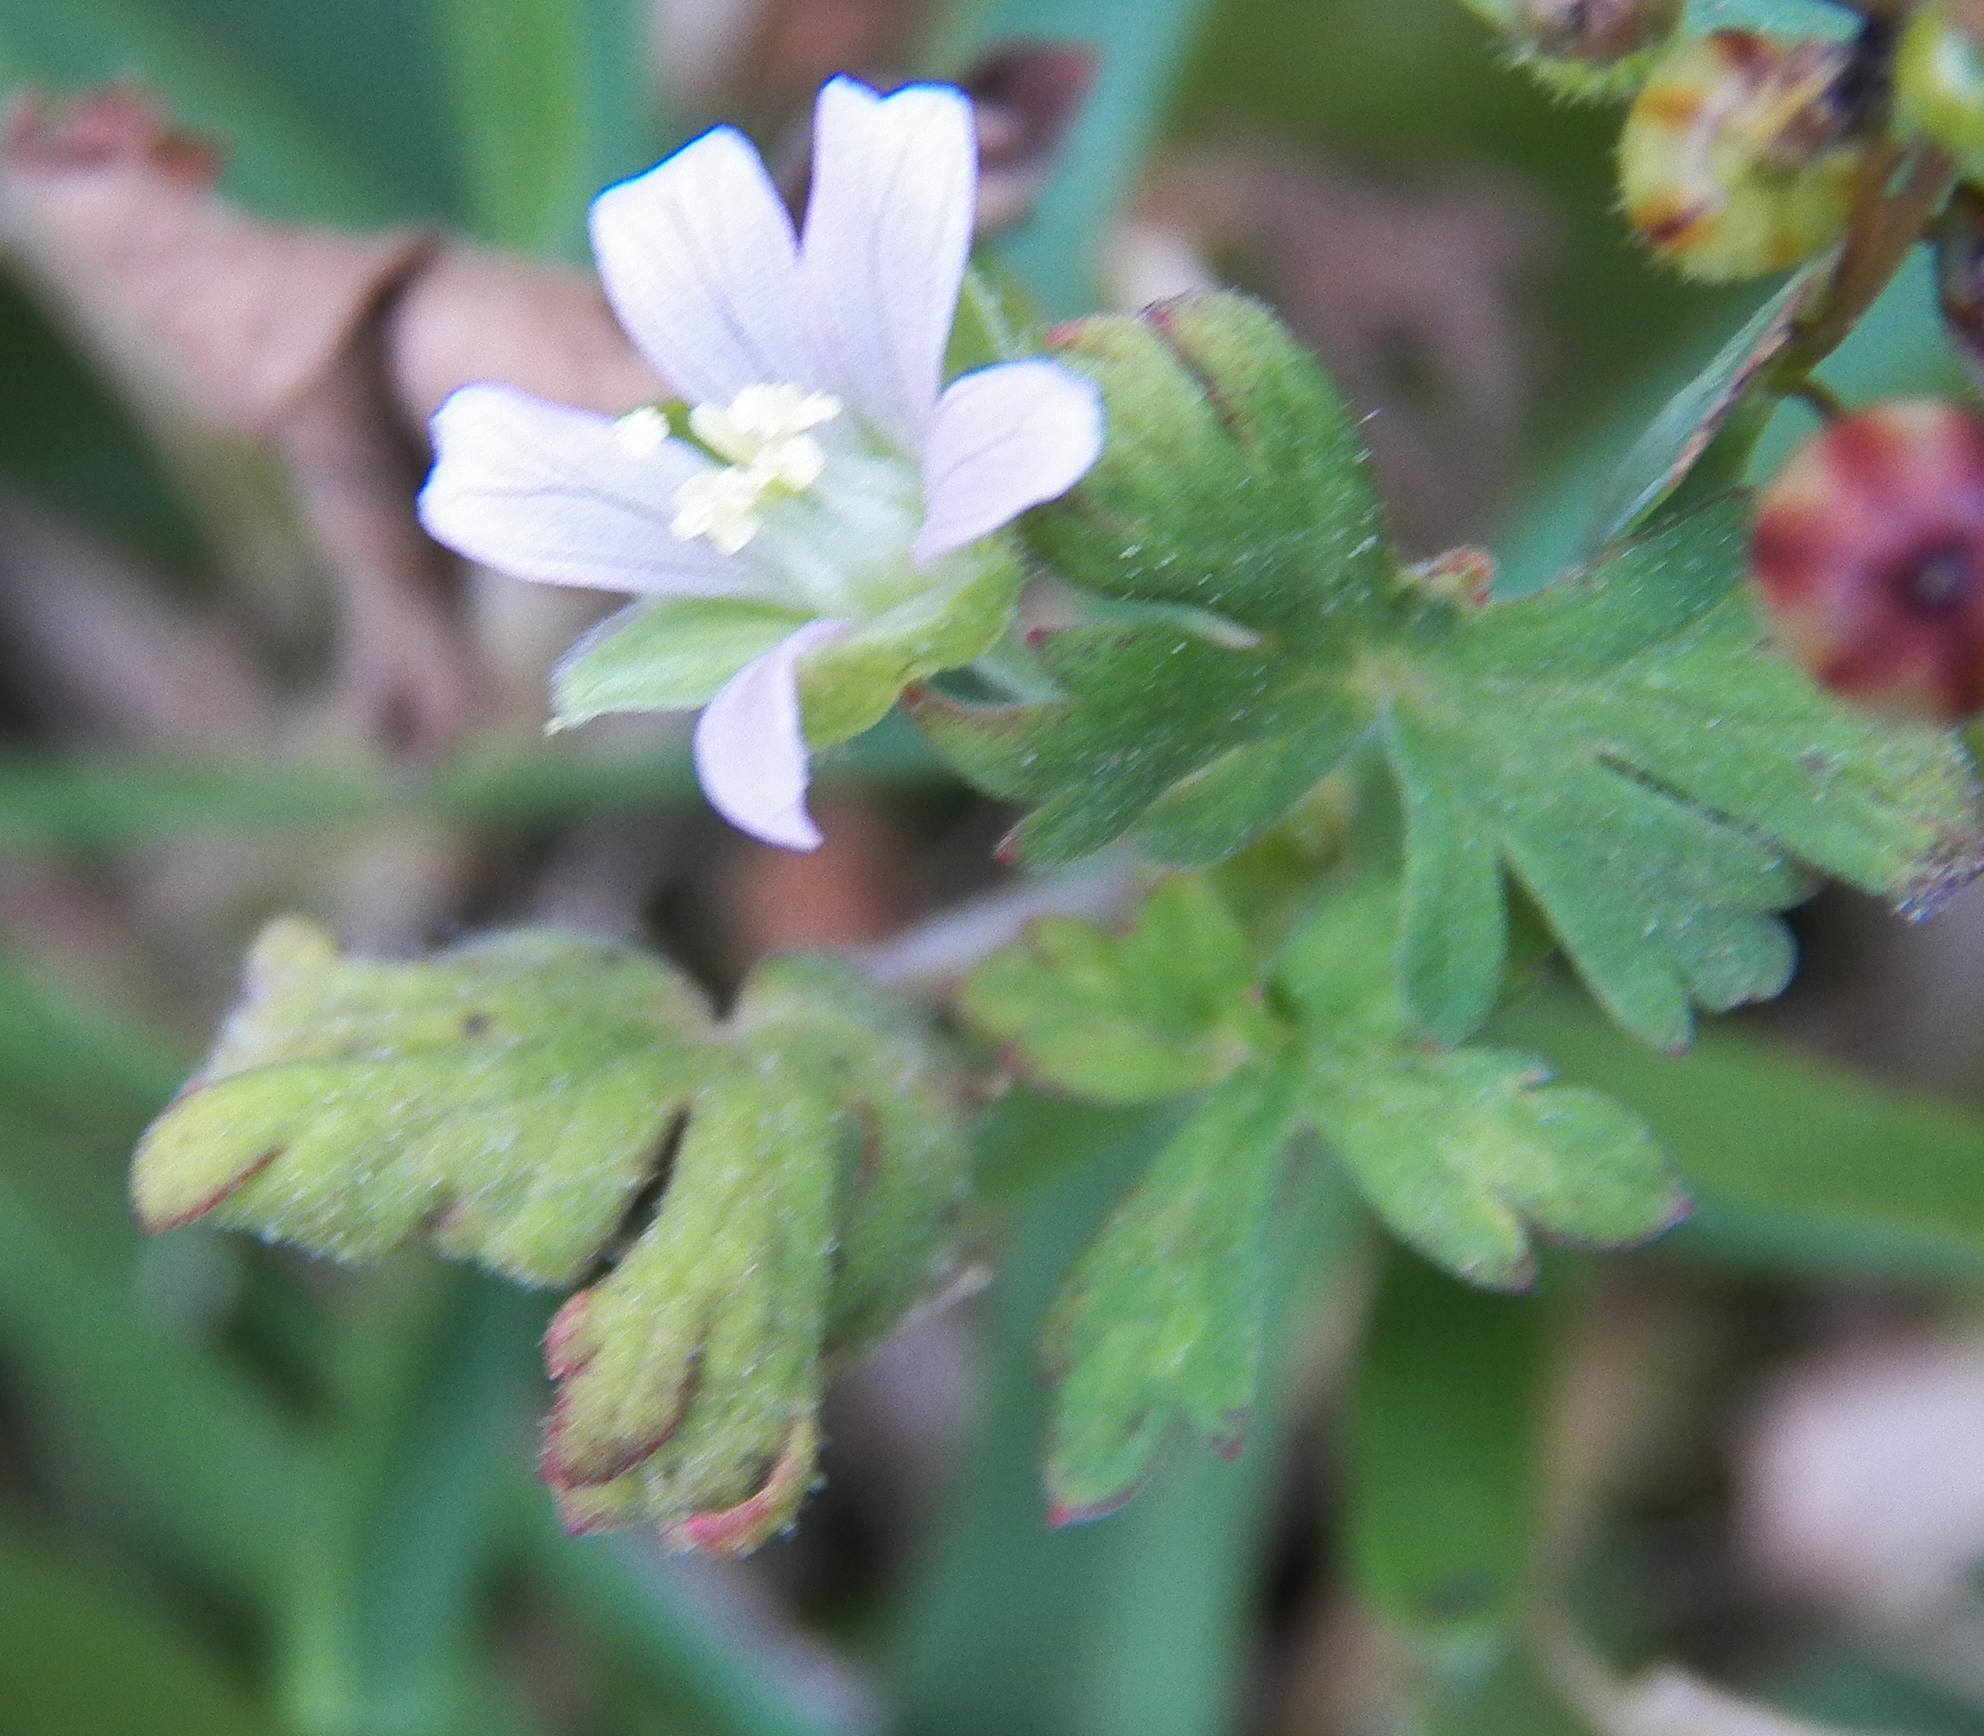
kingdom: Plantae
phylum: Tracheophyta
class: Magnoliopsida
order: Geraniales
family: Geraniaceae
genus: Geranium
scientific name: Geranium carolinianum
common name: Carolina crane's-bill
